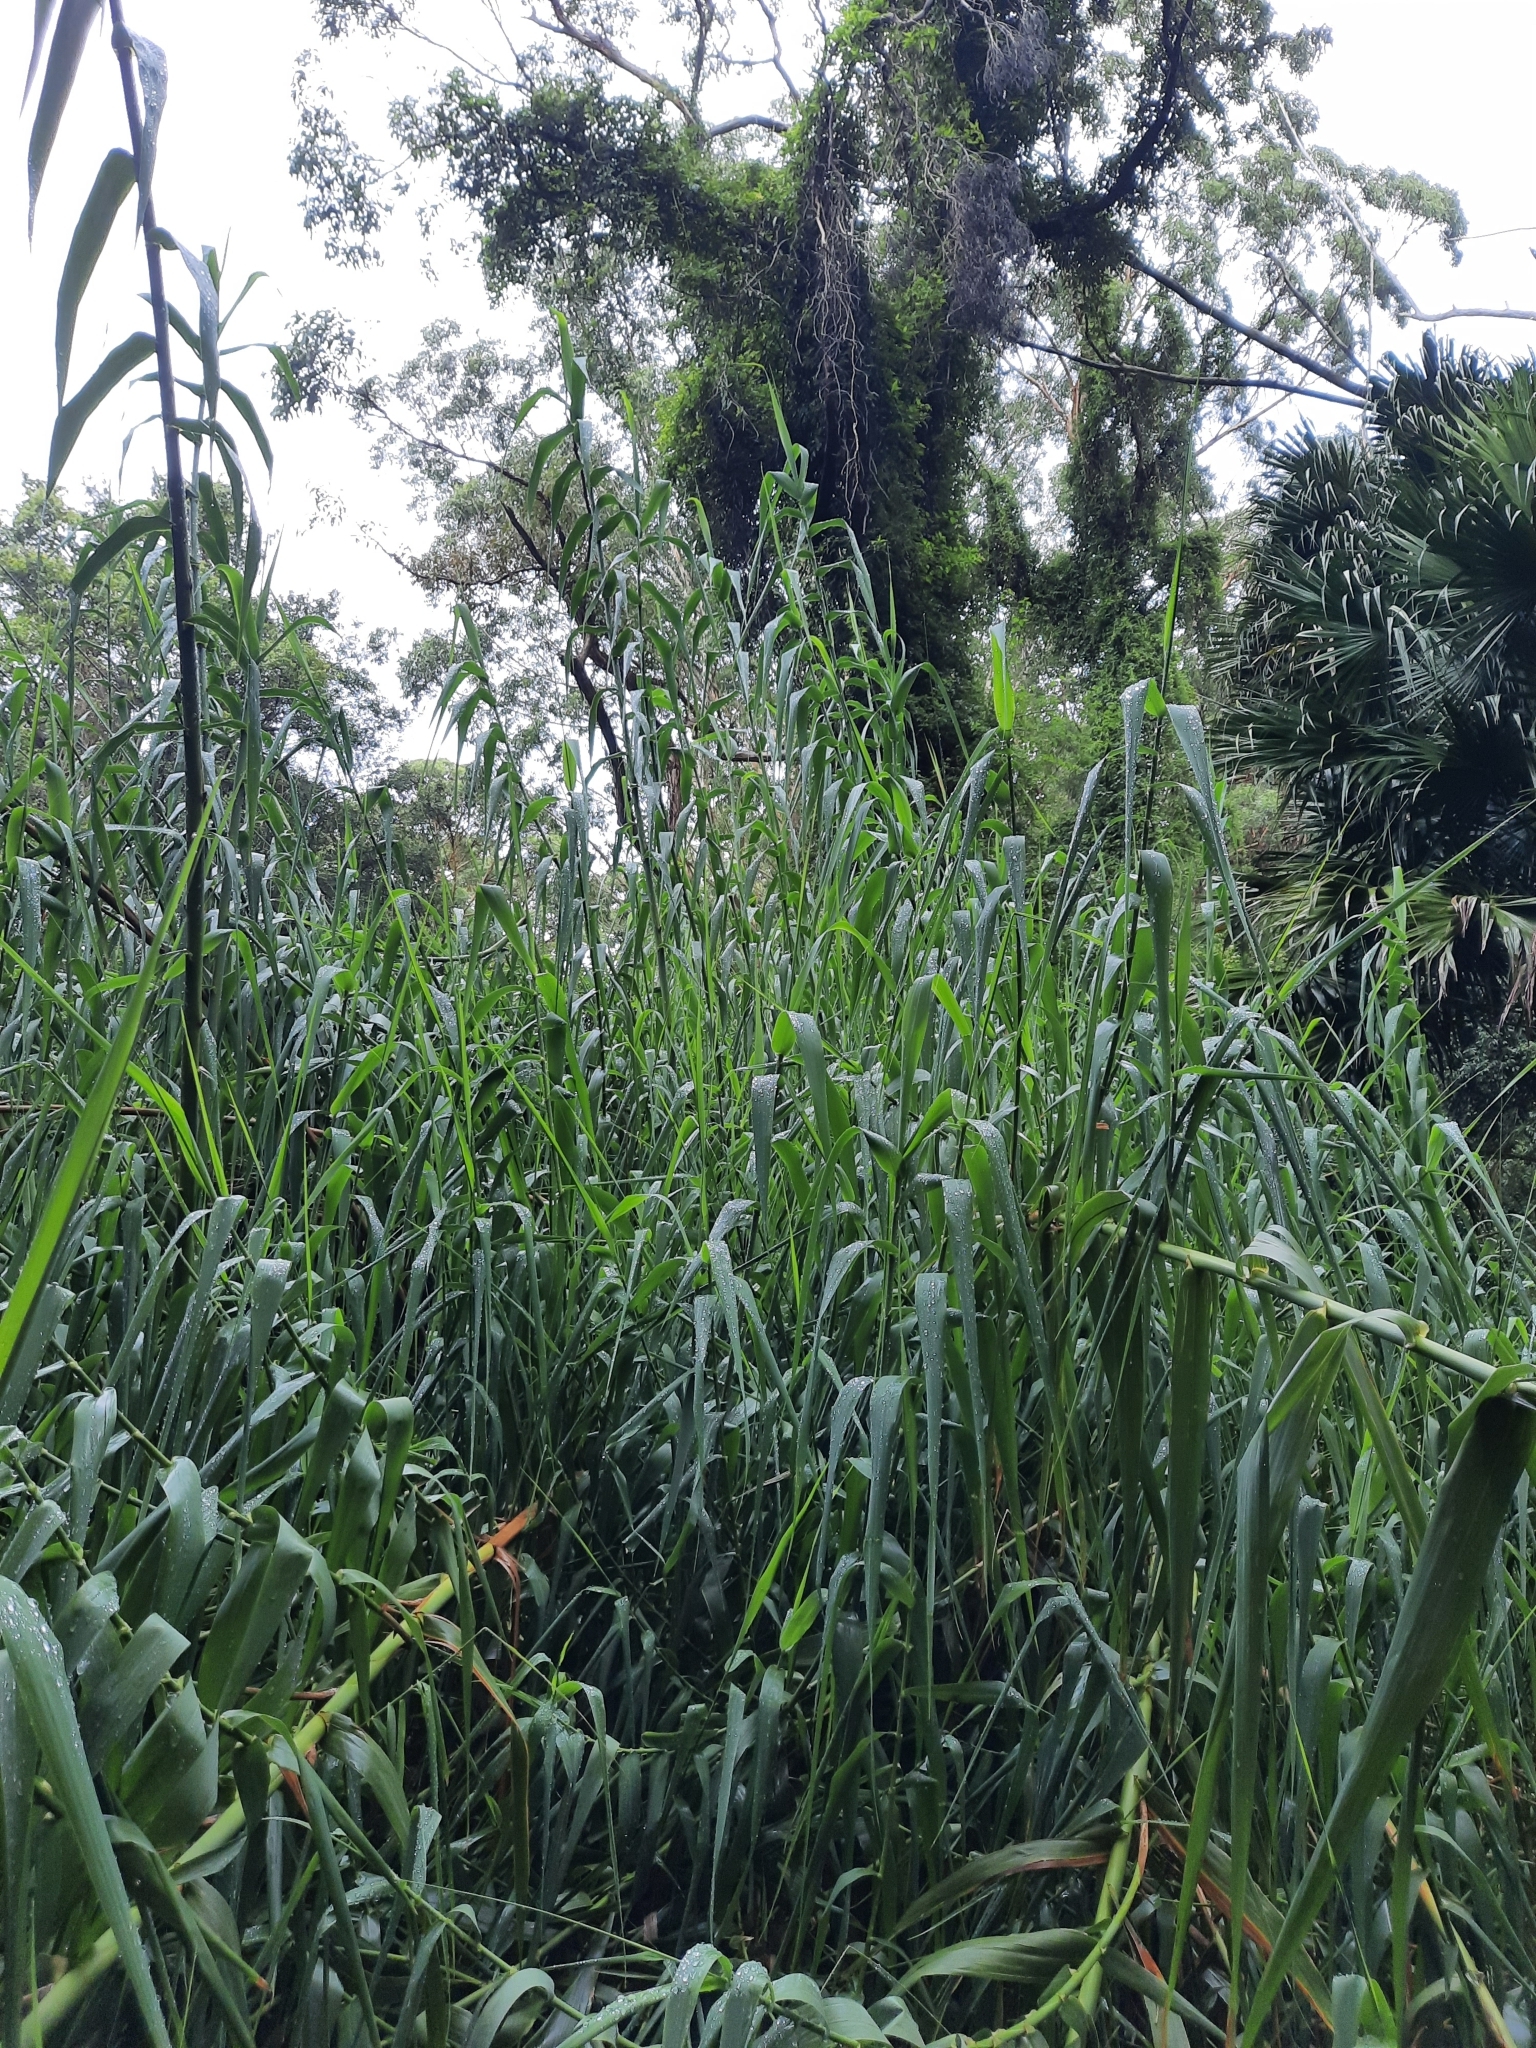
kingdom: Plantae
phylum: Tracheophyta
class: Liliopsida
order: Poales
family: Poaceae
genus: Arundo
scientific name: Arundo donax
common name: Giant reed
